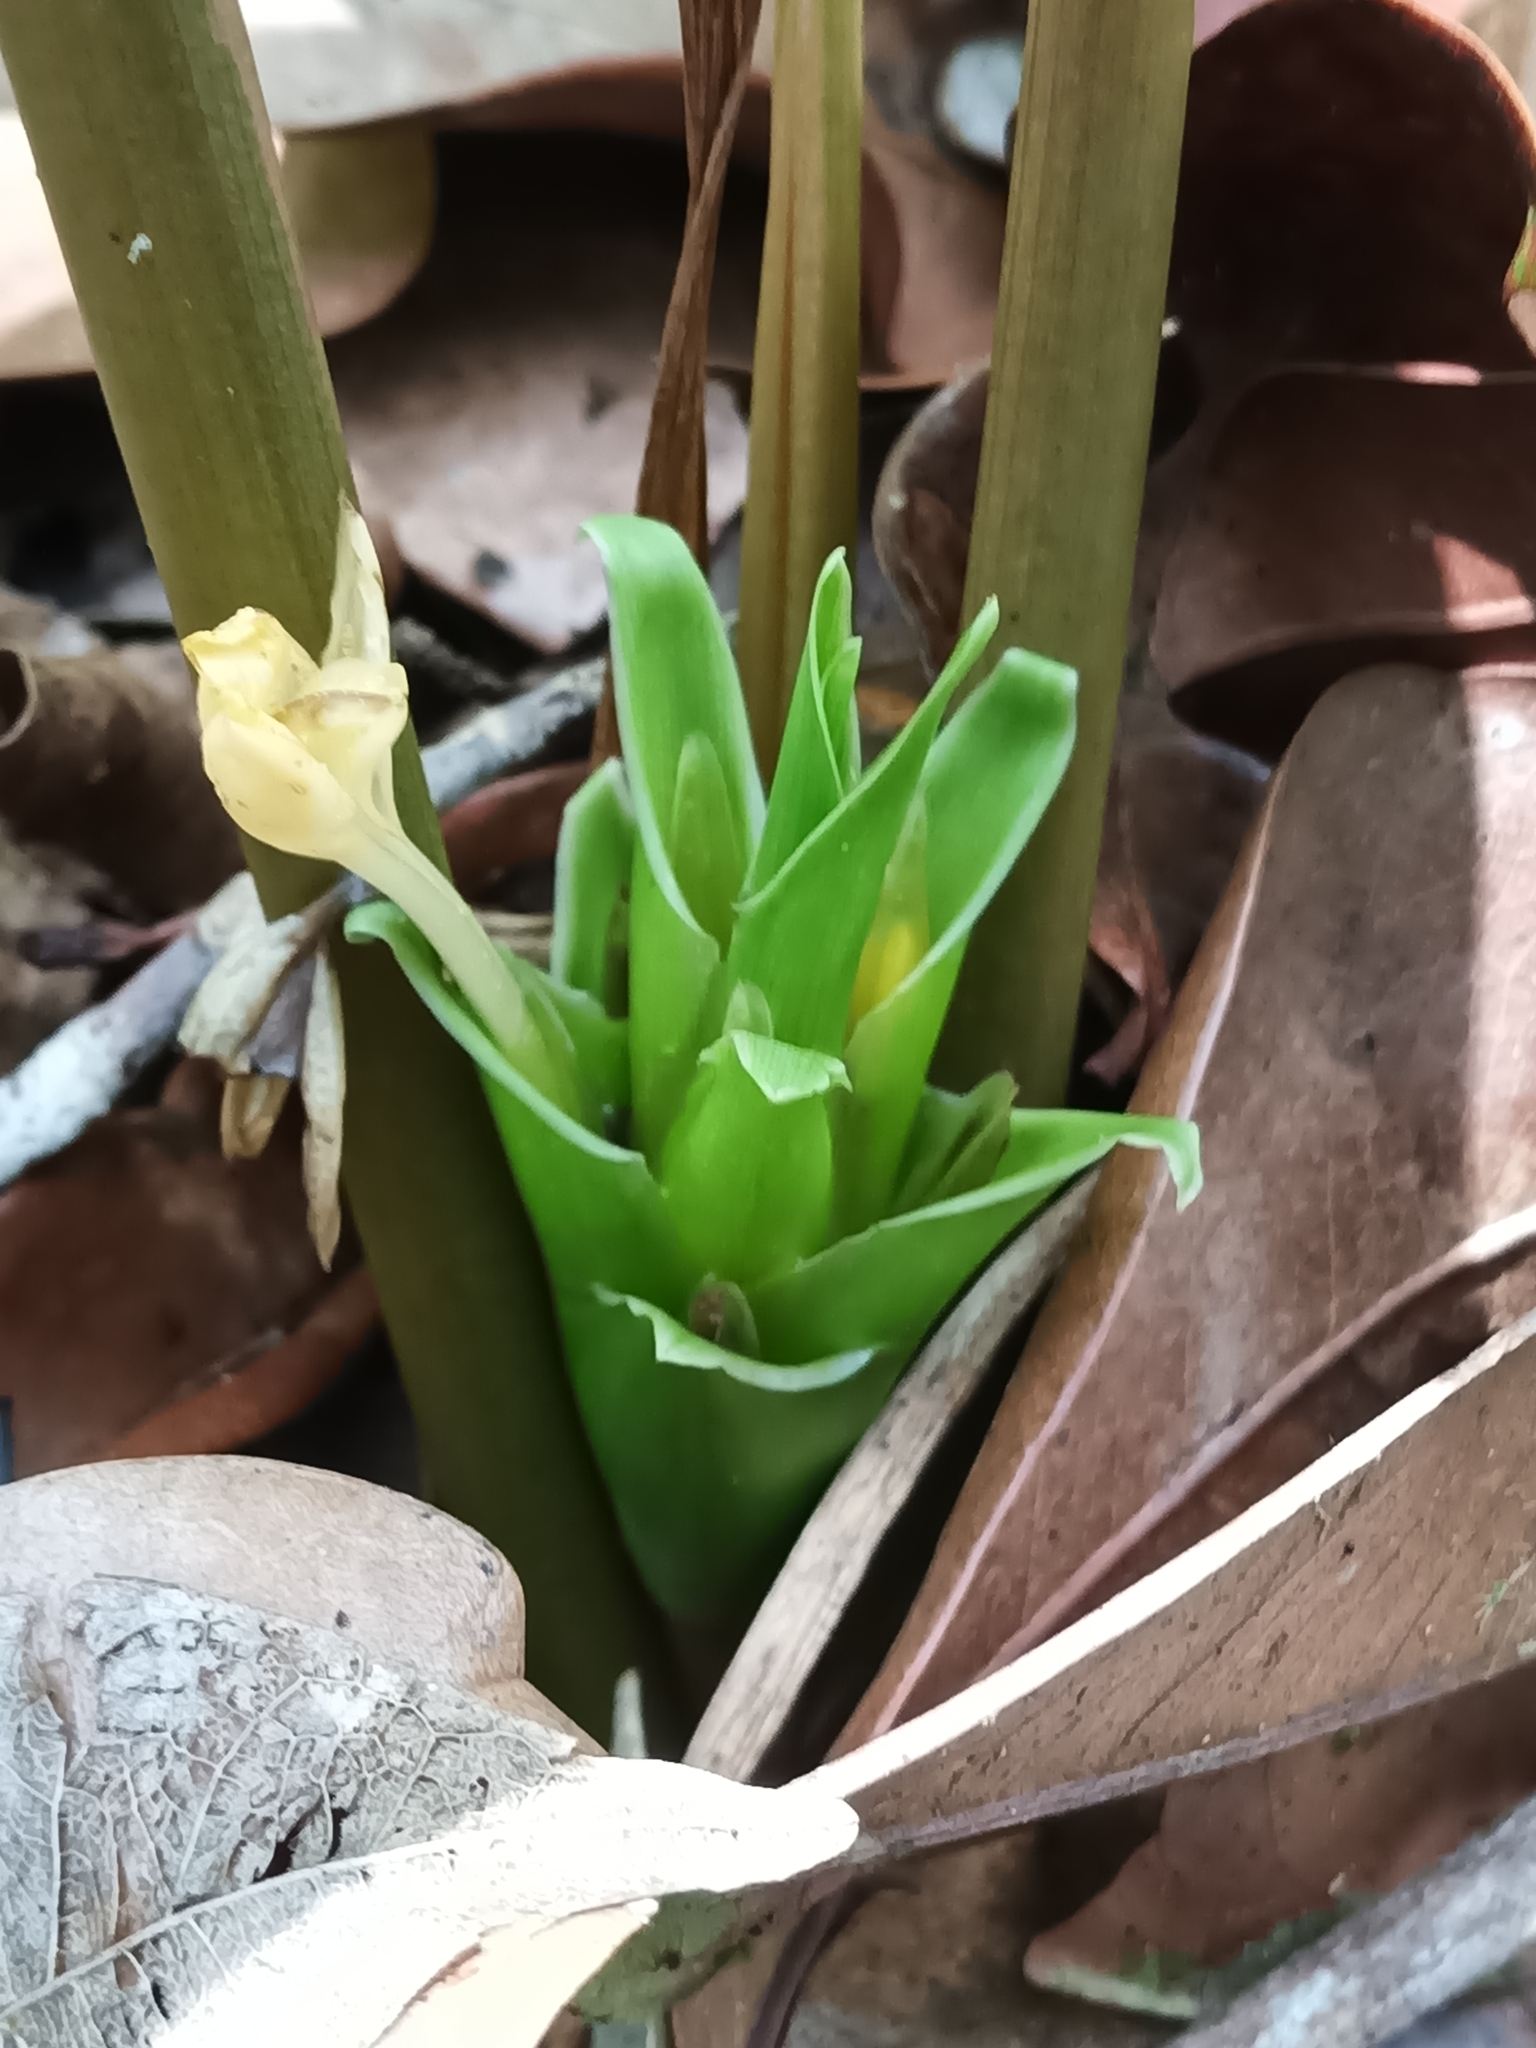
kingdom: Plantae
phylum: Tracheophyta
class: Liliopsida
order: Zingiberales
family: Marantaceae
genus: Goeppertia
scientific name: Goeppertia squarrosa
